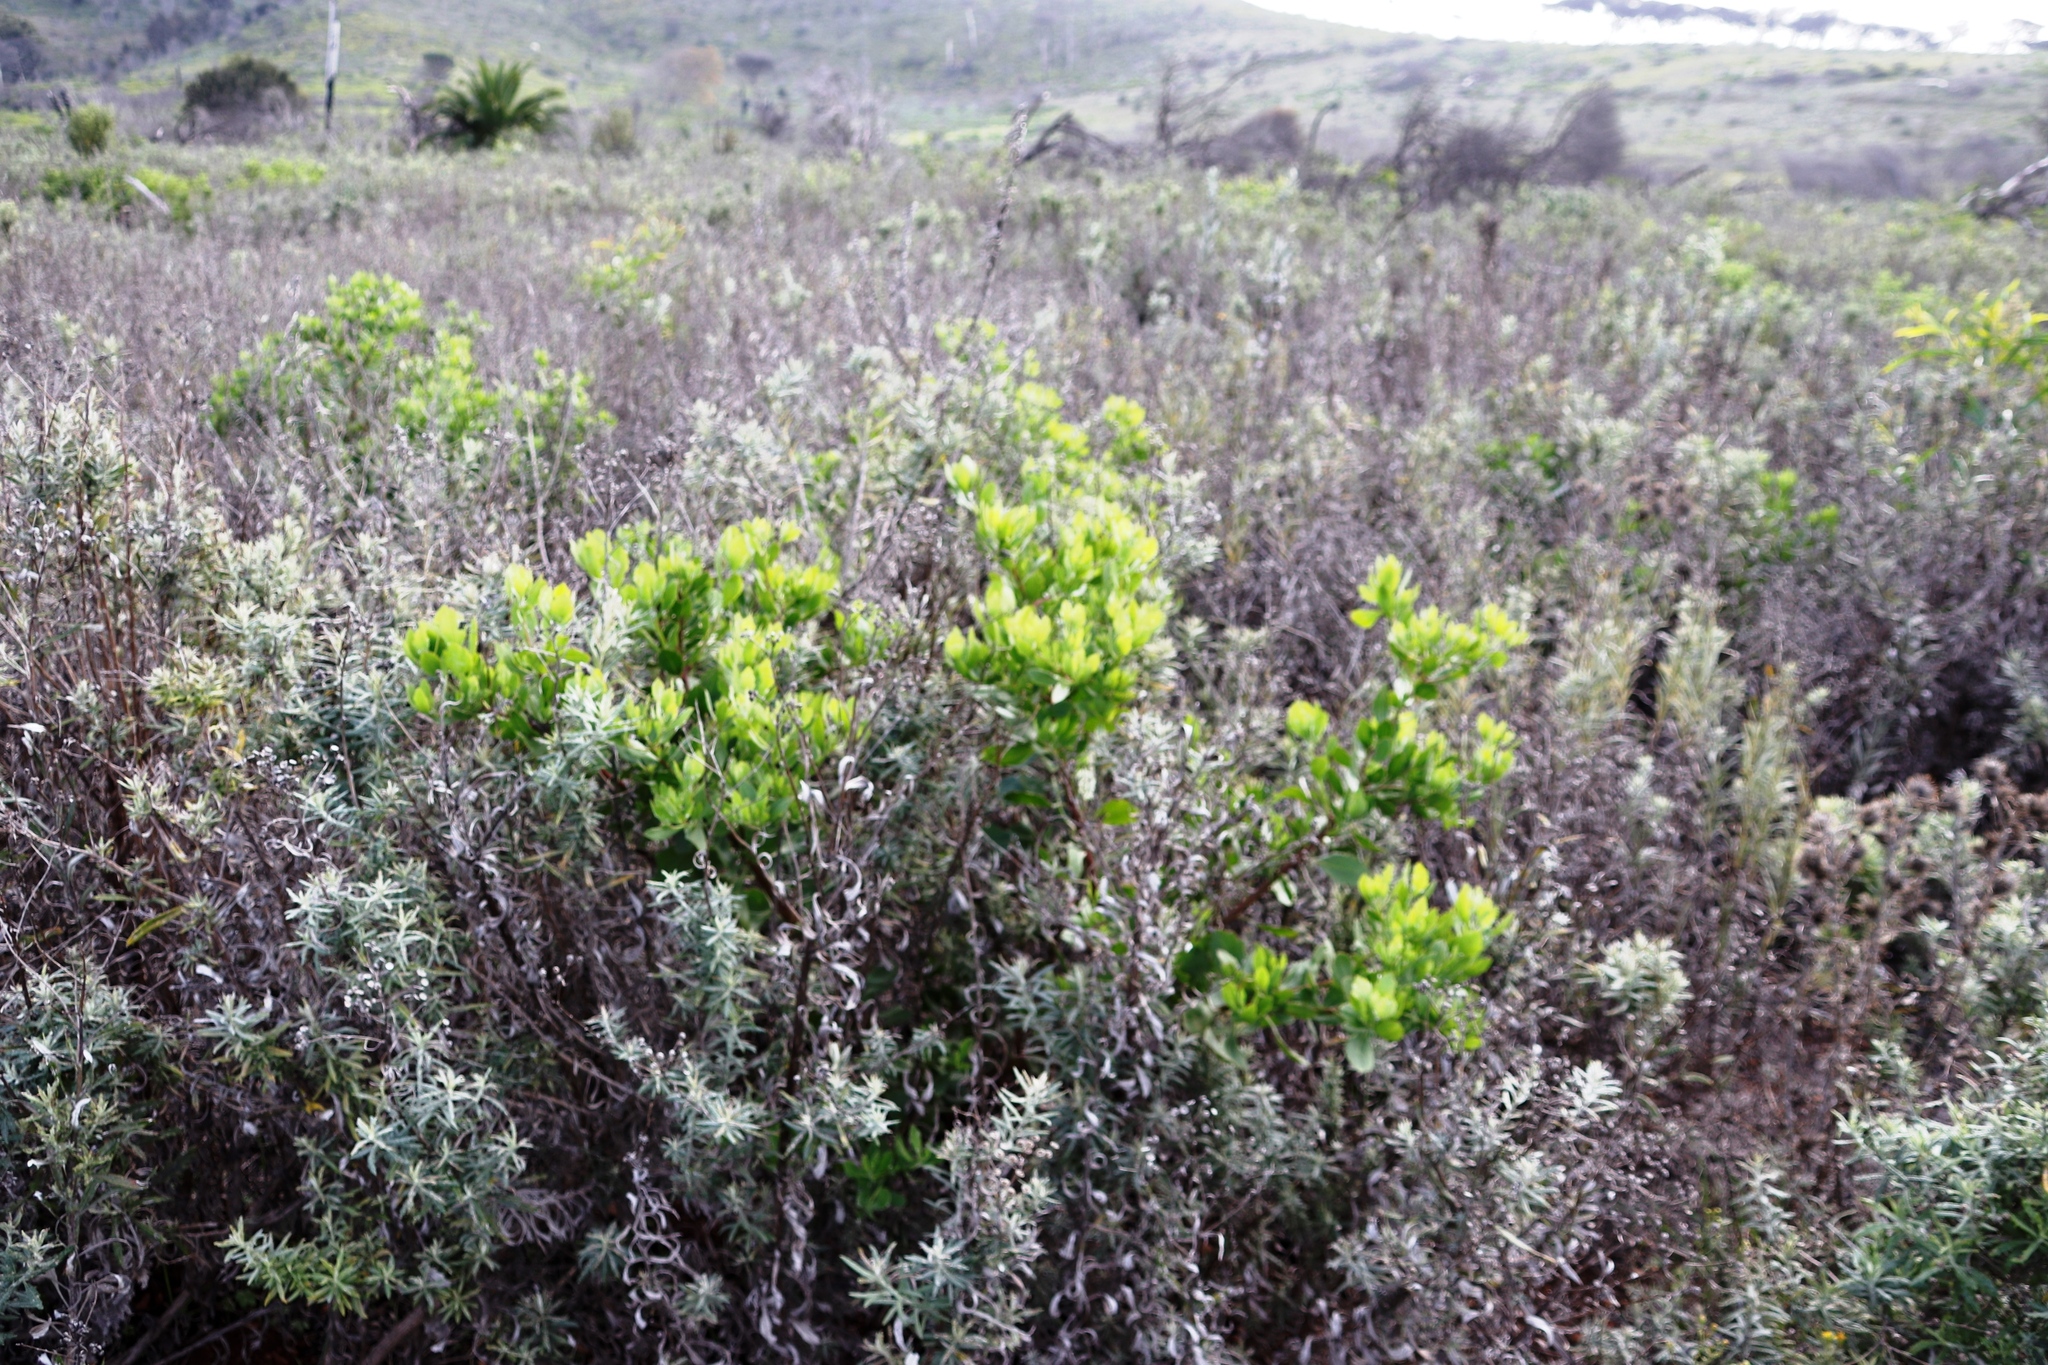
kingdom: Plantae
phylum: Tracheophyta
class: Magnoliopsida
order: Asterales
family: Asteraceae
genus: Osteospermum
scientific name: Osteospermum moniliferum
